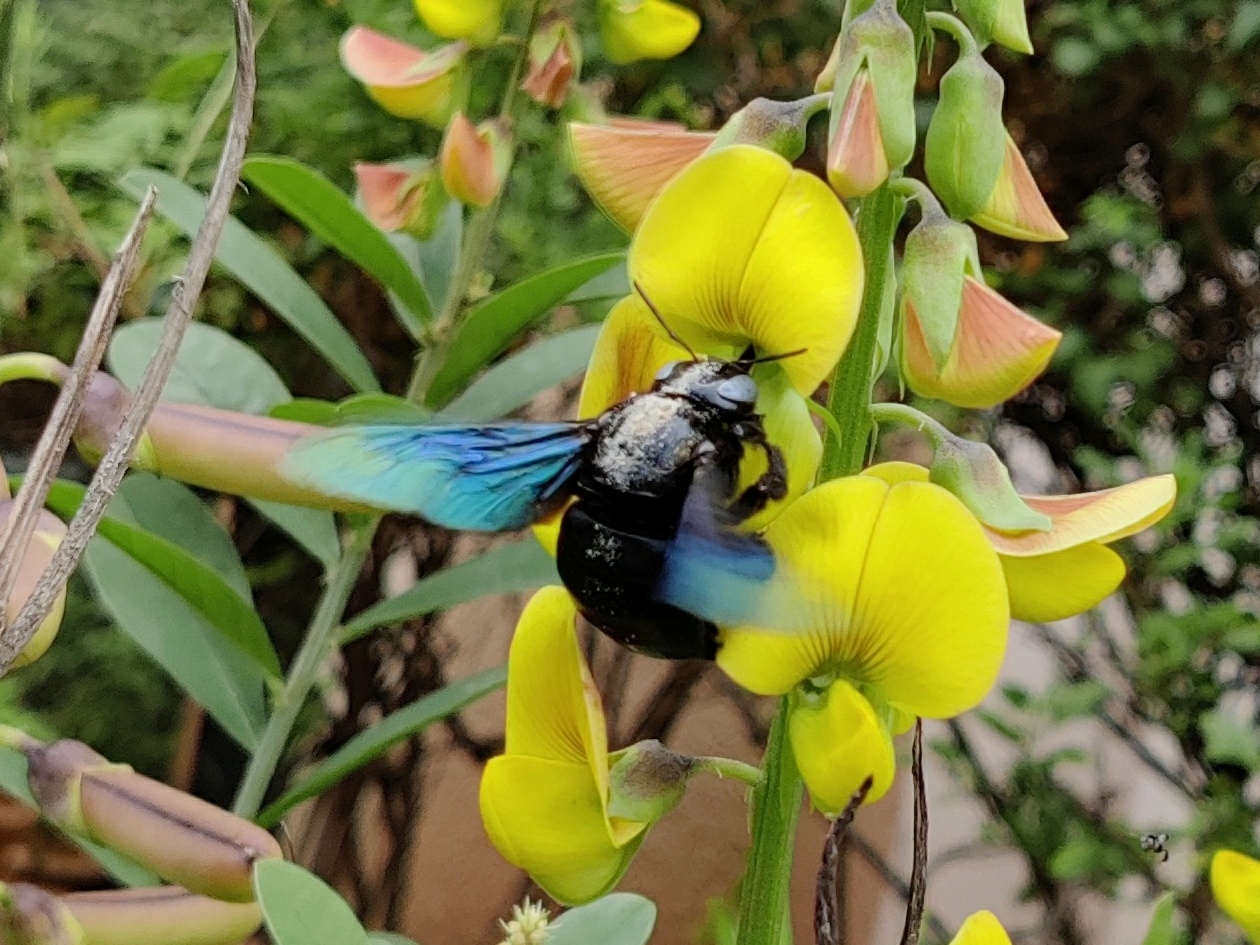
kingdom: Animalia
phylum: Arthropoda
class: Insecta
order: Hymenoptera
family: Apidae
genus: Xylocopa
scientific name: Xylocopa tenuiscapa
